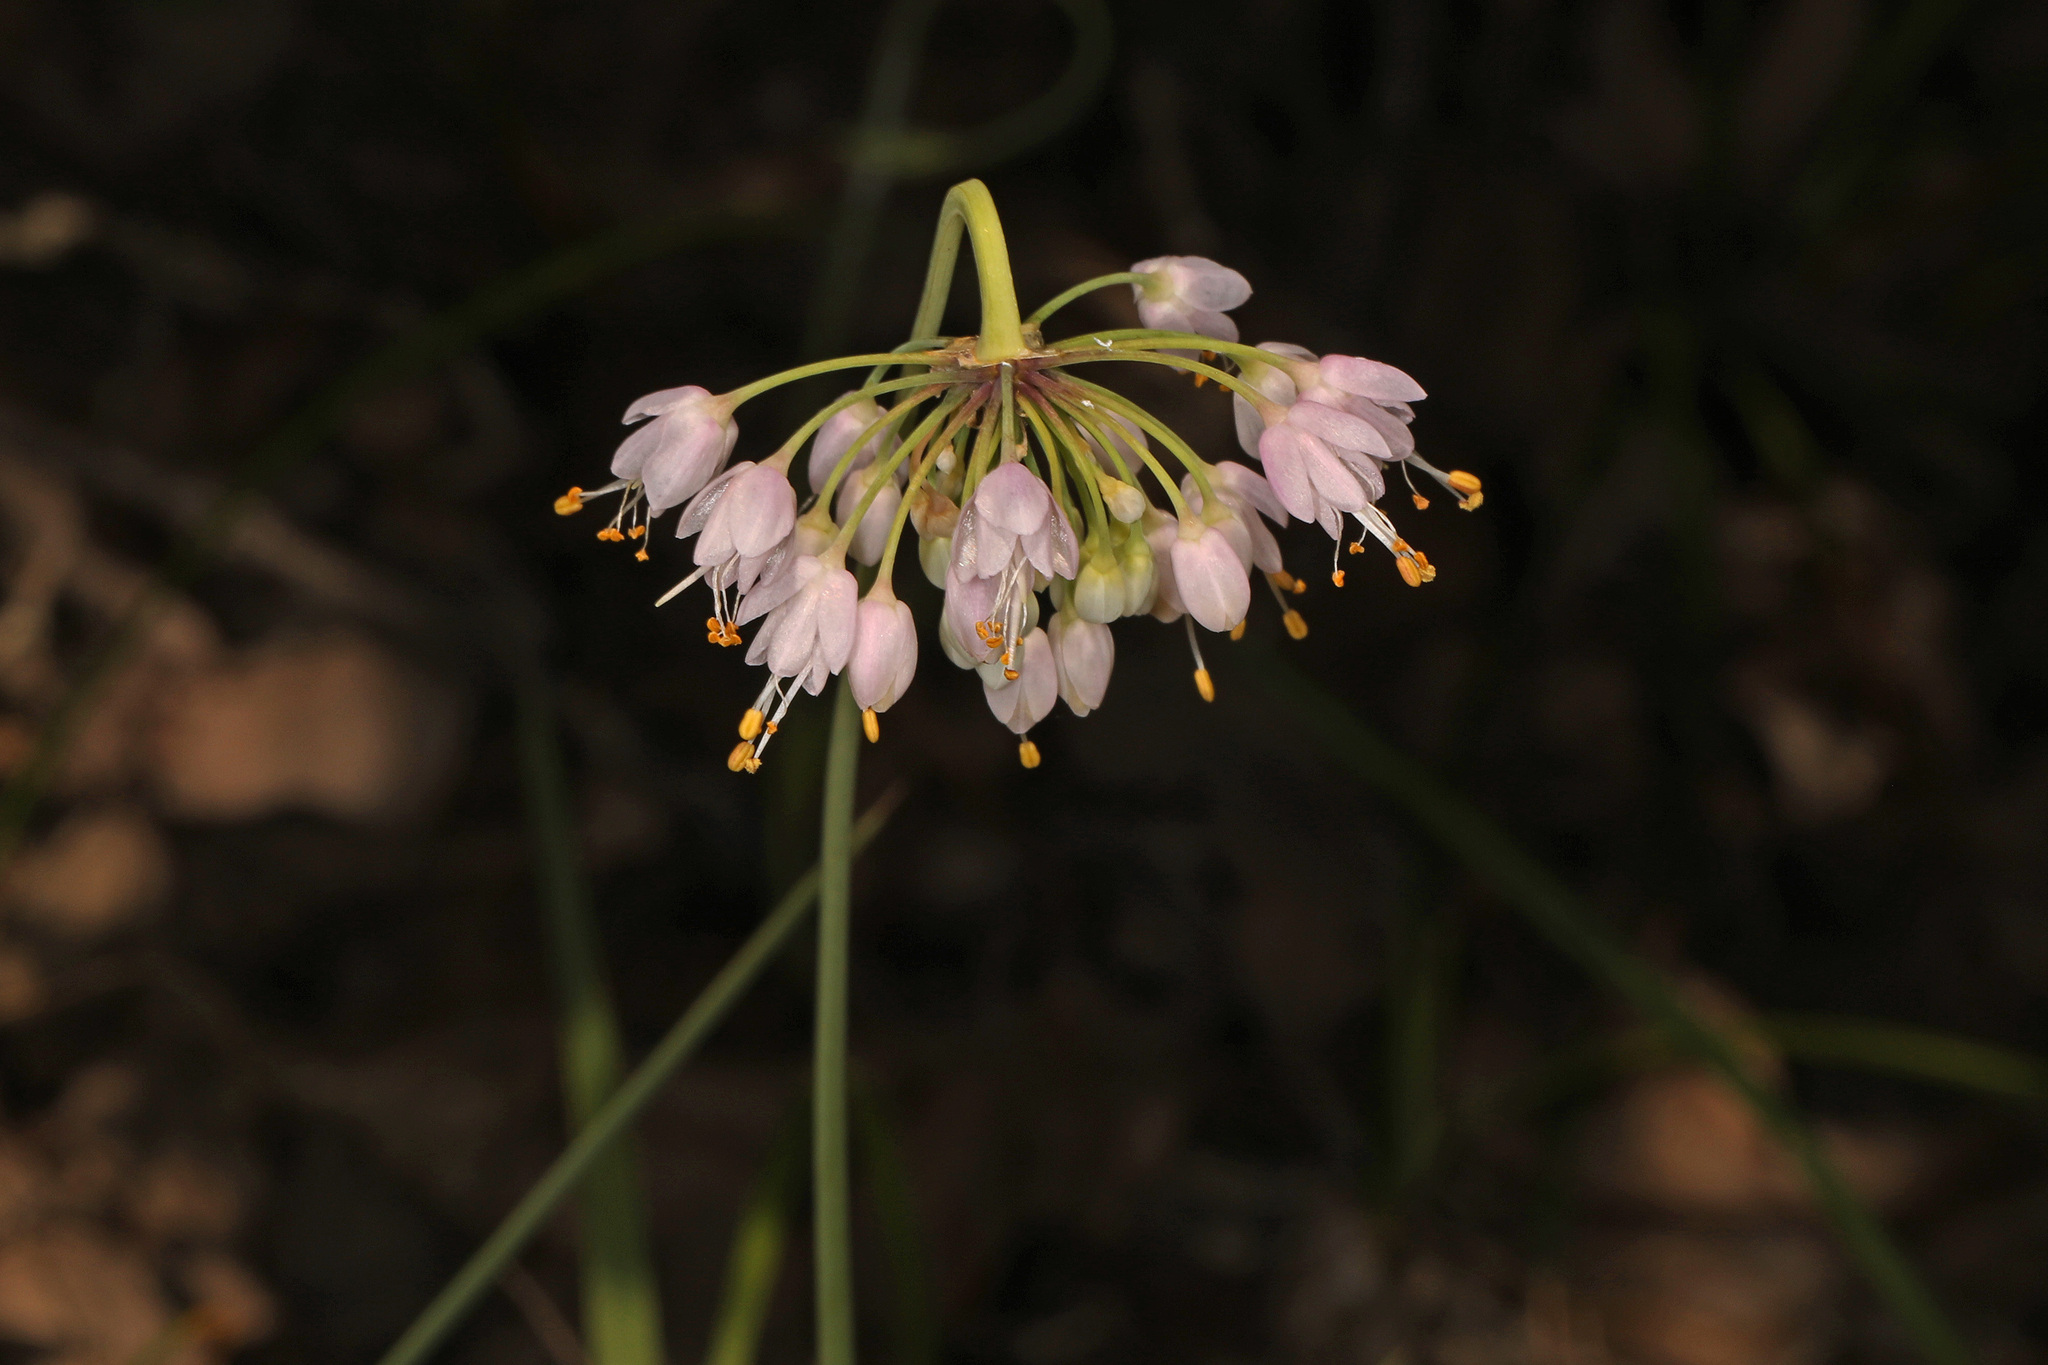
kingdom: Plantae
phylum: Tracheophyta
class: Liliopsida
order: Asparagales
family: Amaryllidaceae
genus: Allium
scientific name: Allium cernuum
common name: Nodding onion
